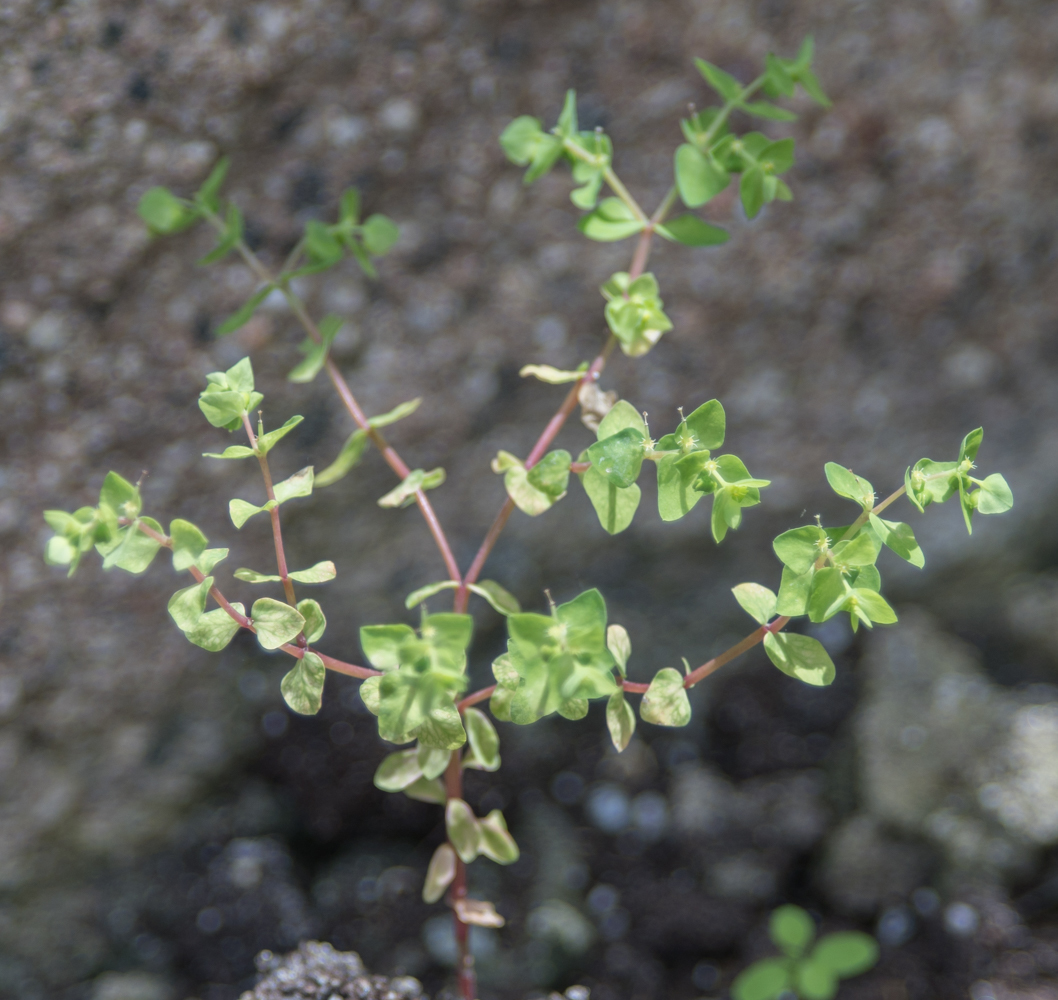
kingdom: Plantae
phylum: Tracheophyta
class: Magnoliopsida
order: Malpighiales
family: Euphorbiaceae
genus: Euphorbia
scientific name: Euphorbia peplus
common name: Petty spurge
